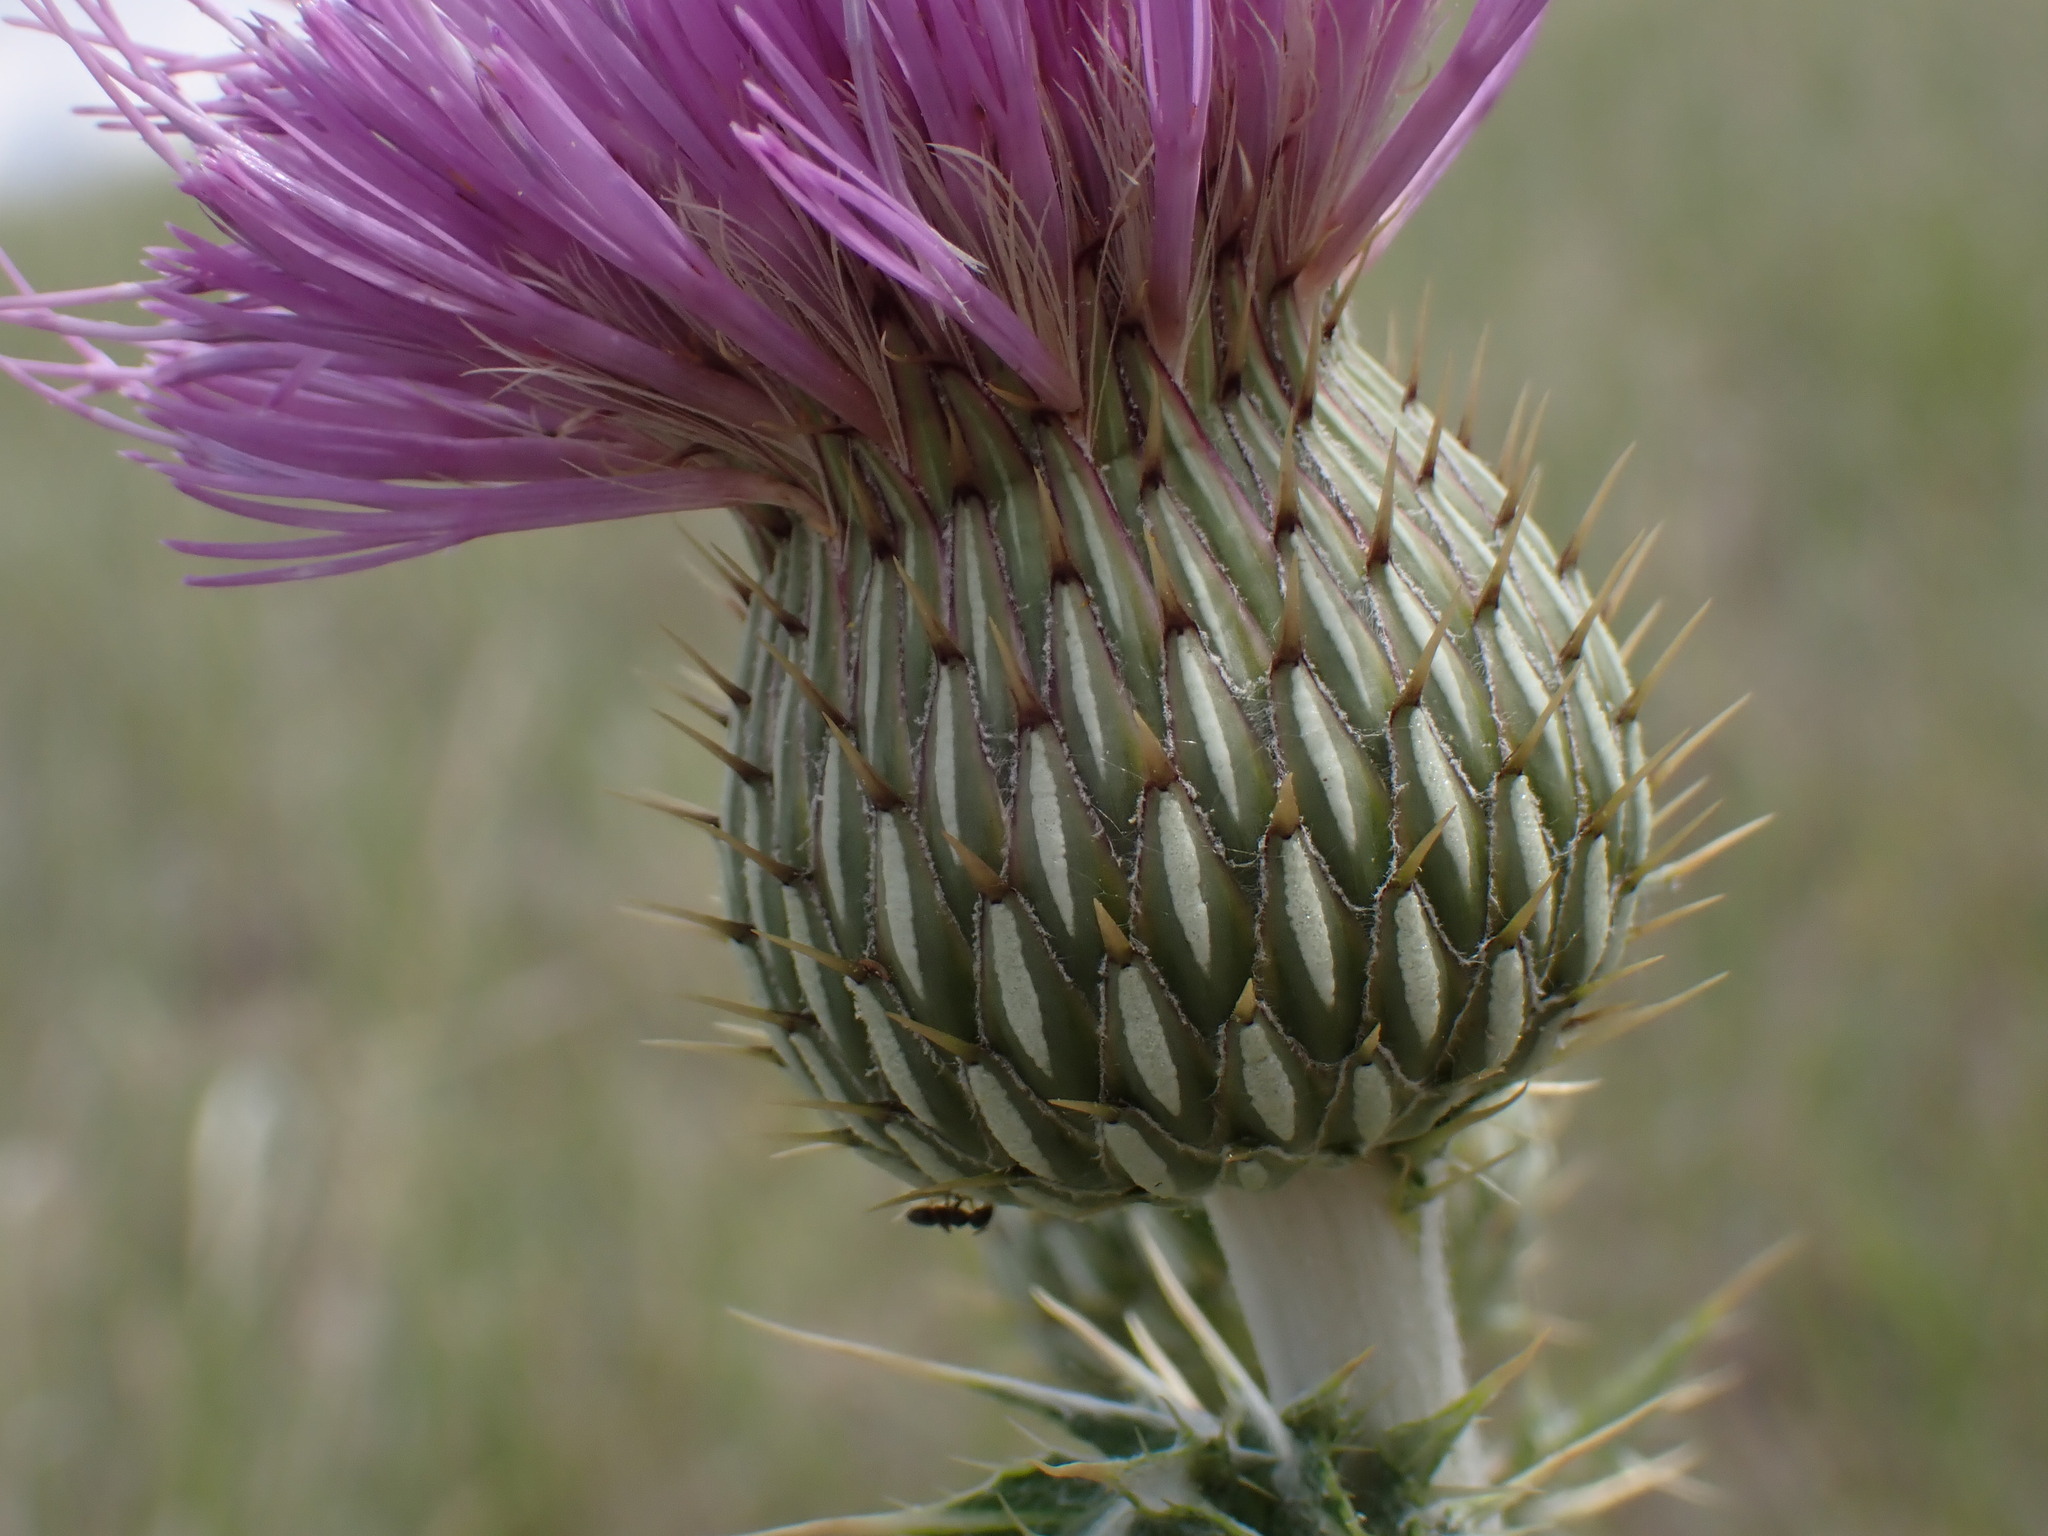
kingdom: Plantae
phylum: Tracheophyta
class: Magnoliopsida
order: Asterales
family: Asteraceae
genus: Cirsium
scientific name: Cirsium undulatum
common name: Pasture thistle
